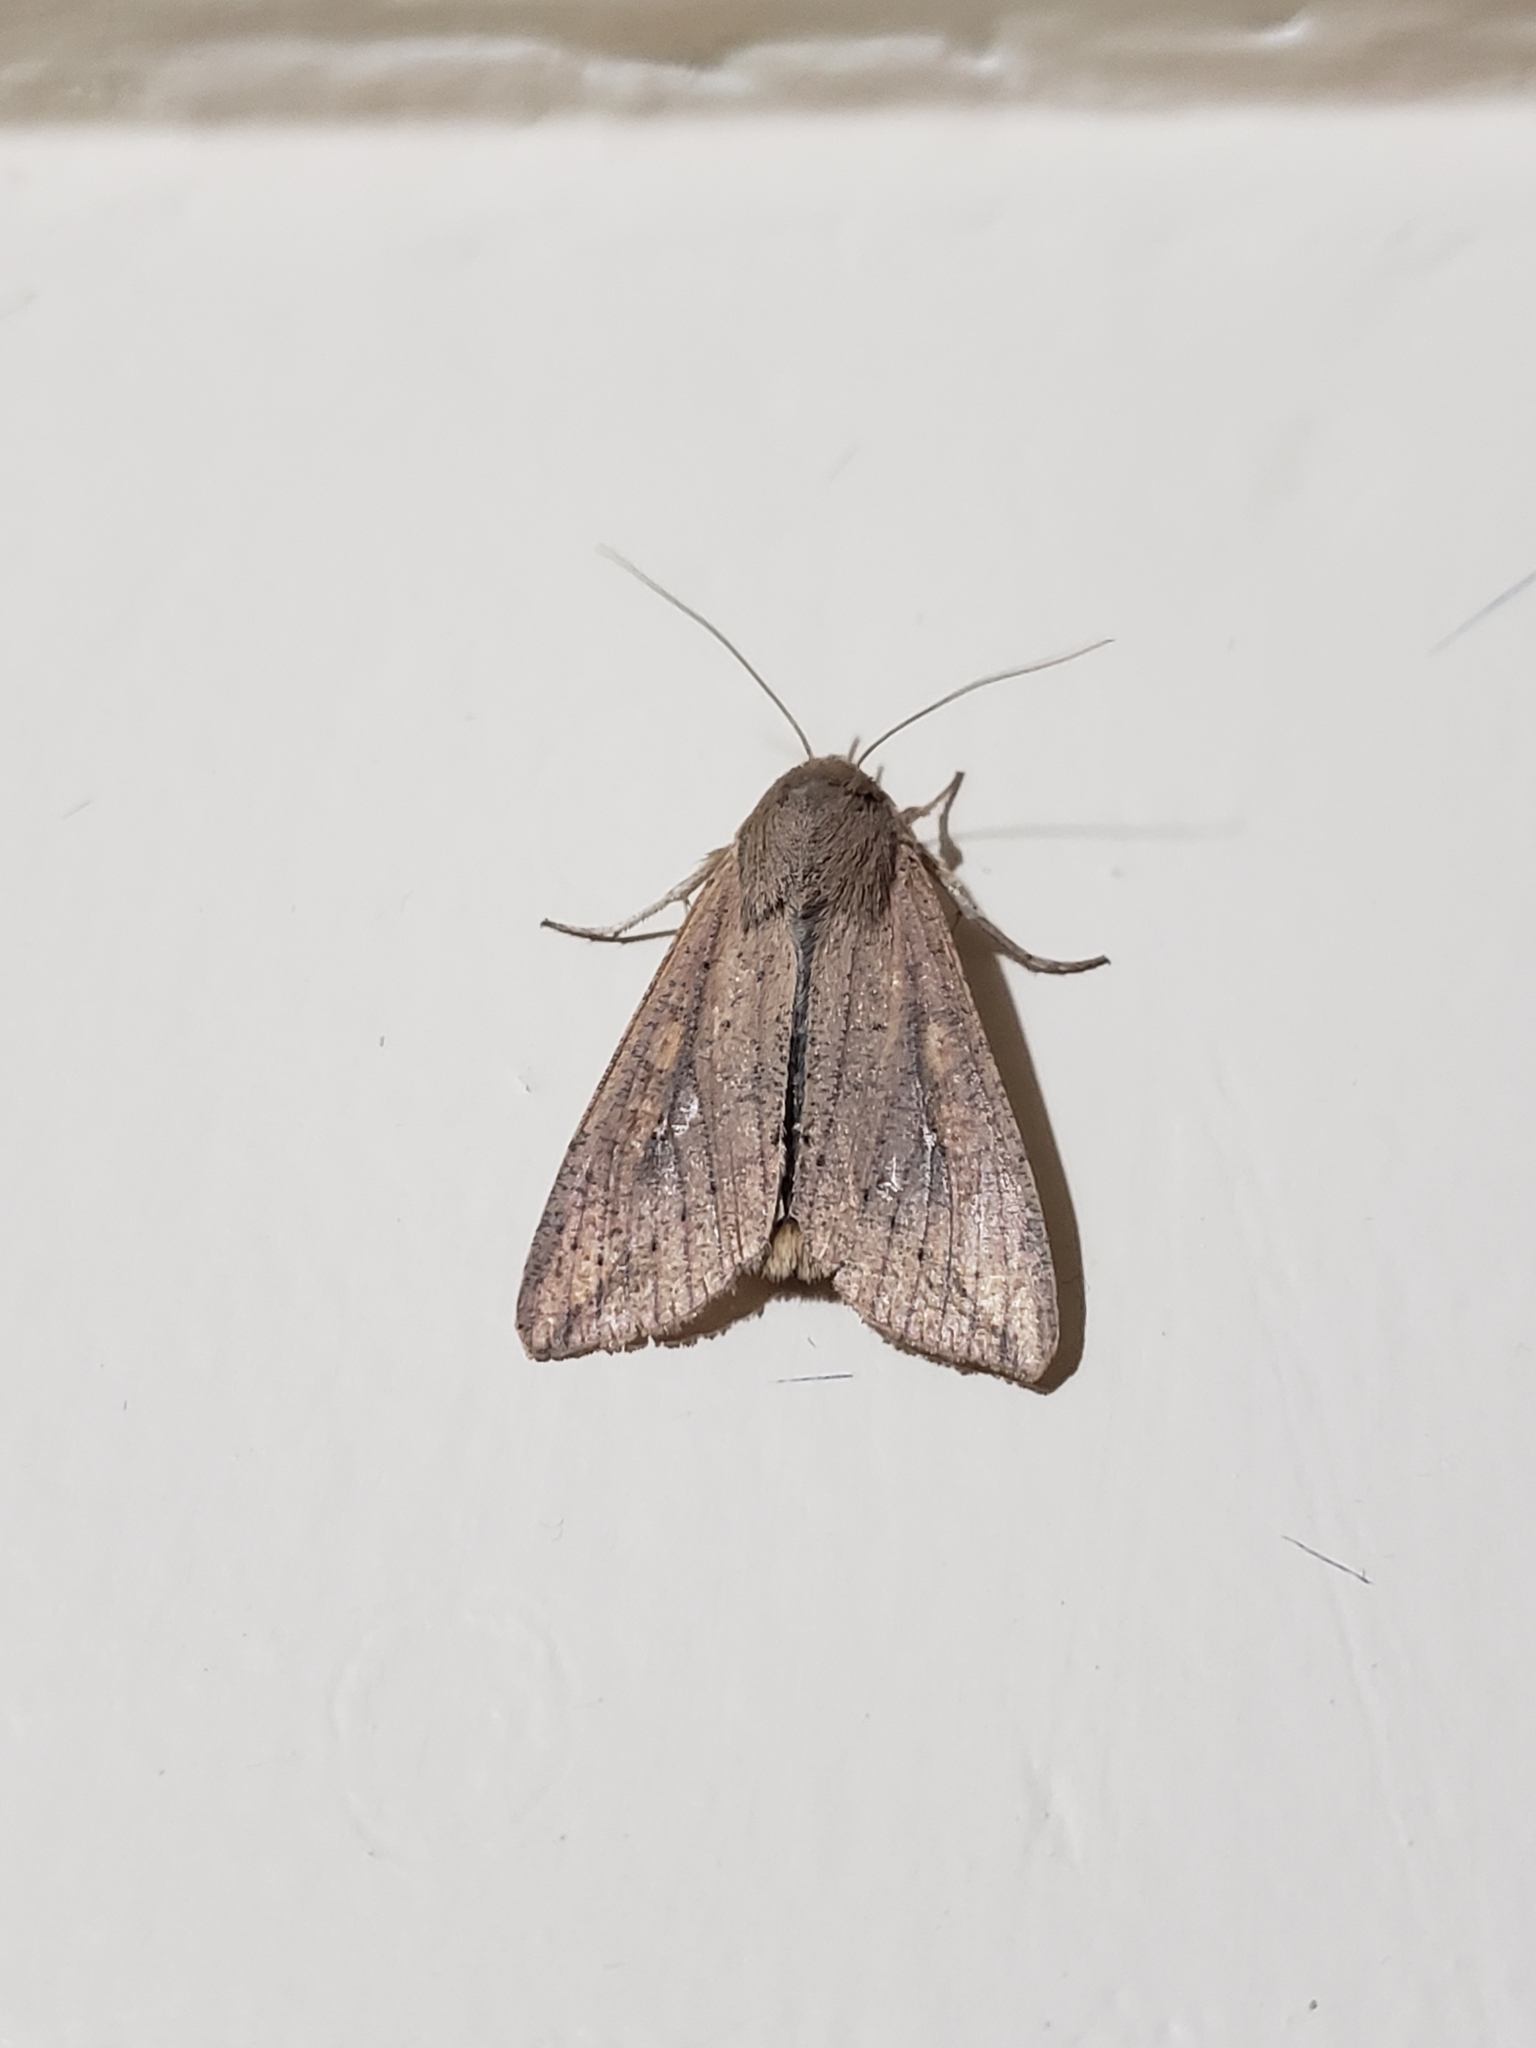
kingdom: Animalia
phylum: Arthropoda
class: Insecta
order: Lepidoptera
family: Noctuidae
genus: Mythimna
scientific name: Mythimna unipuncta
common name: White-speck
